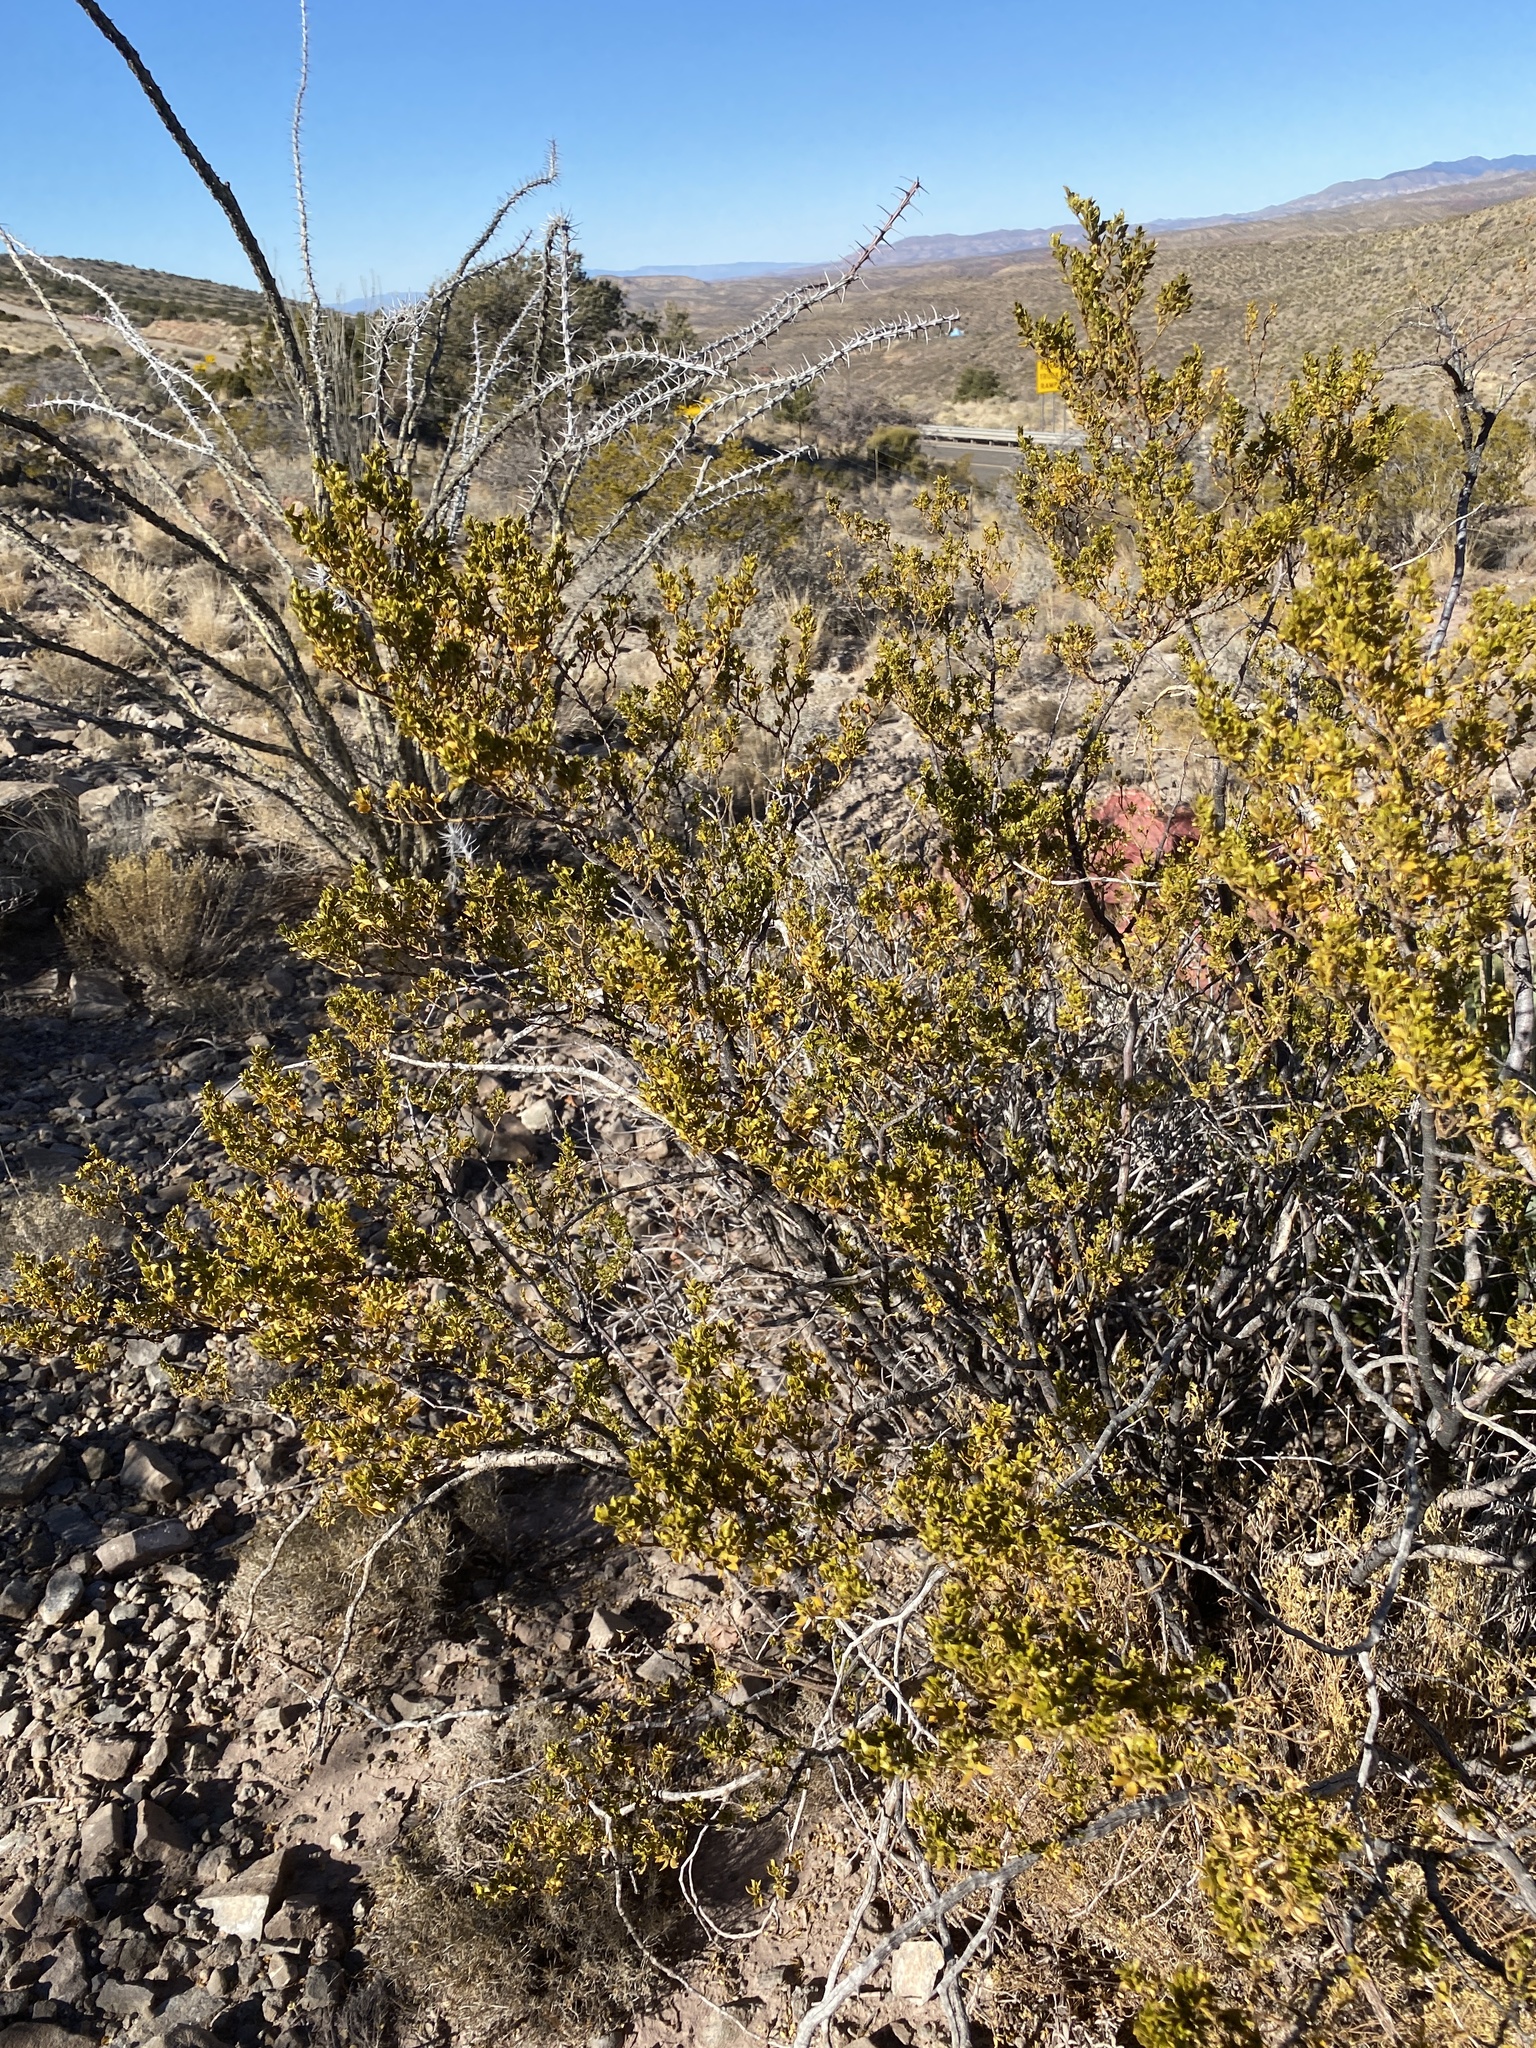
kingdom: Plantae
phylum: Tracheophyta
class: Magnoliopsida
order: Zygophyllales
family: Zygophyllaceae
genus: Larrea
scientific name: Larrea tridentata
